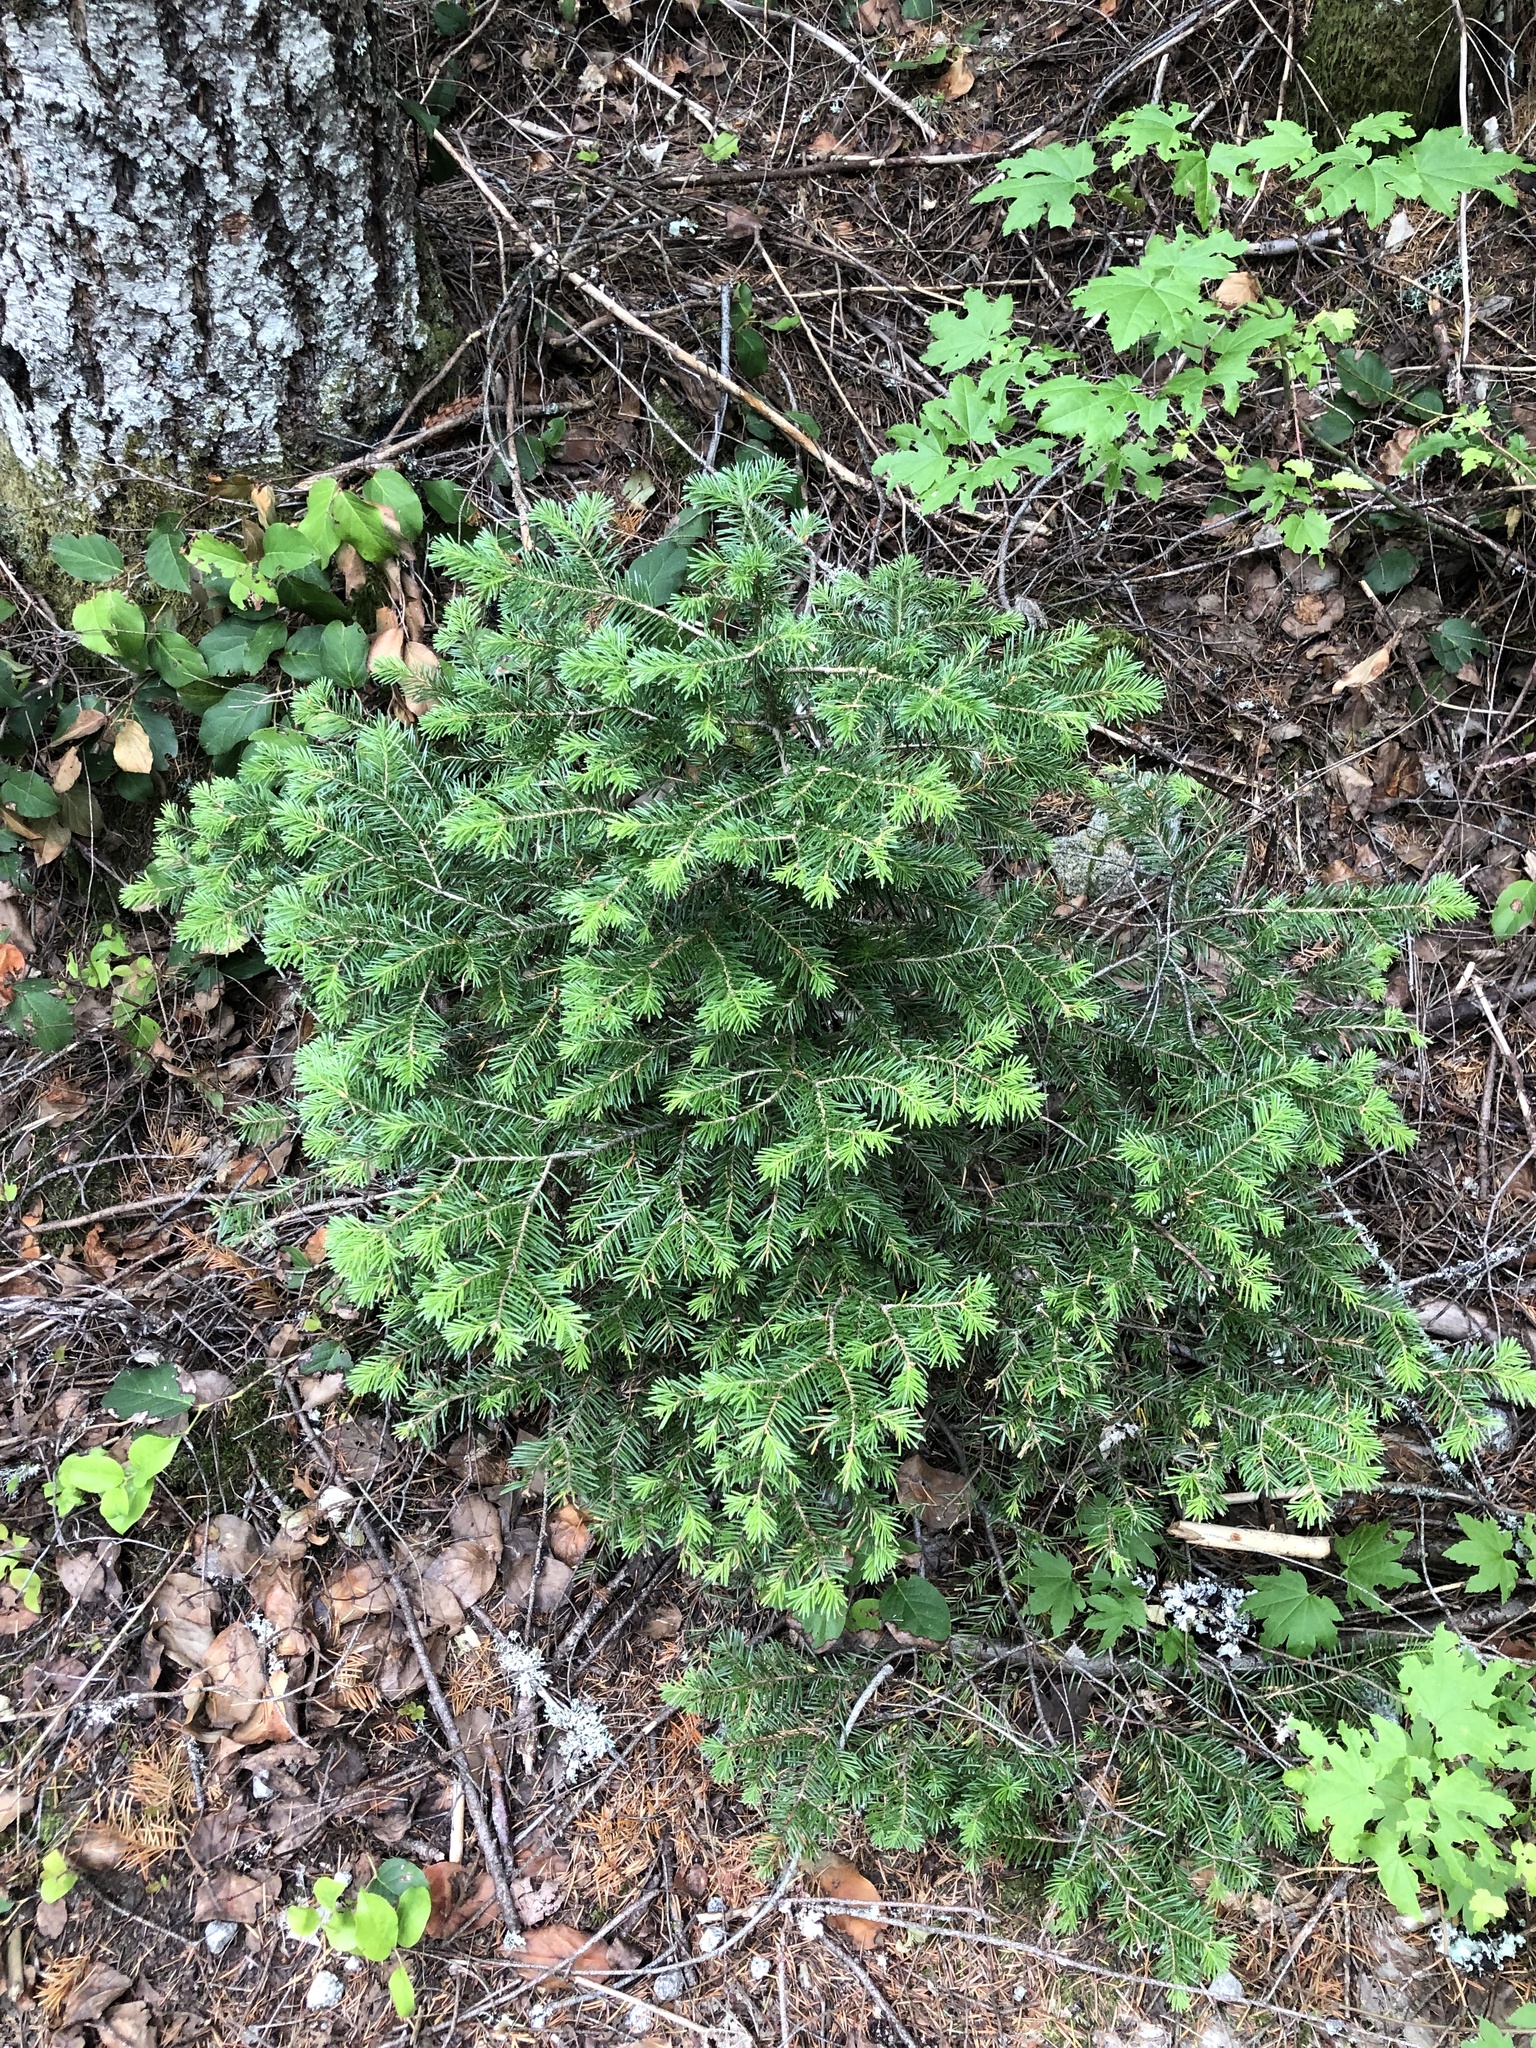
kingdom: Plantae
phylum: Tracheophyta
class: Pinopsida
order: Pinales
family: Pinaceae
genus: Abies
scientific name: Abies lasiocarpa
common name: Subalpine fir
